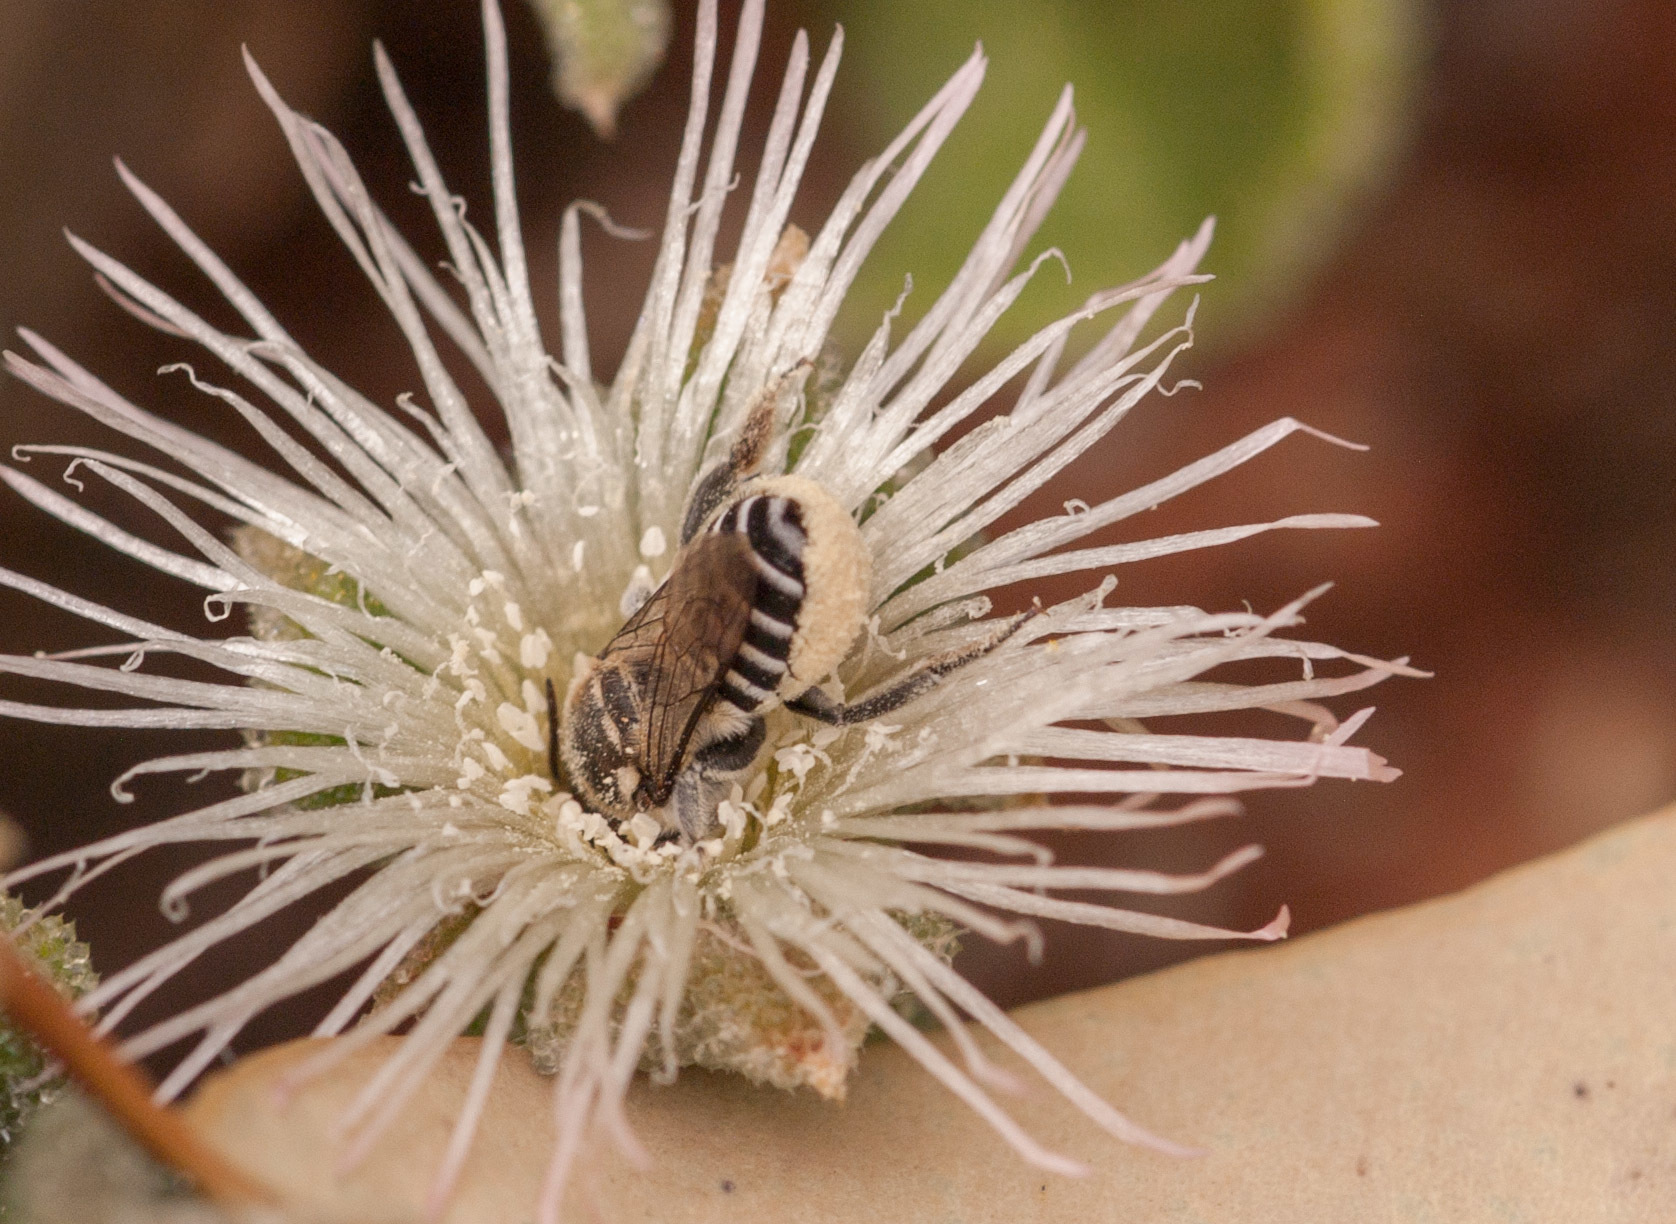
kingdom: Animalia
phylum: Arthropoda
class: Insecta
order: Hymenoptera
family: Megachilidae
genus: Megachile
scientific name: Megachile darwiniana
